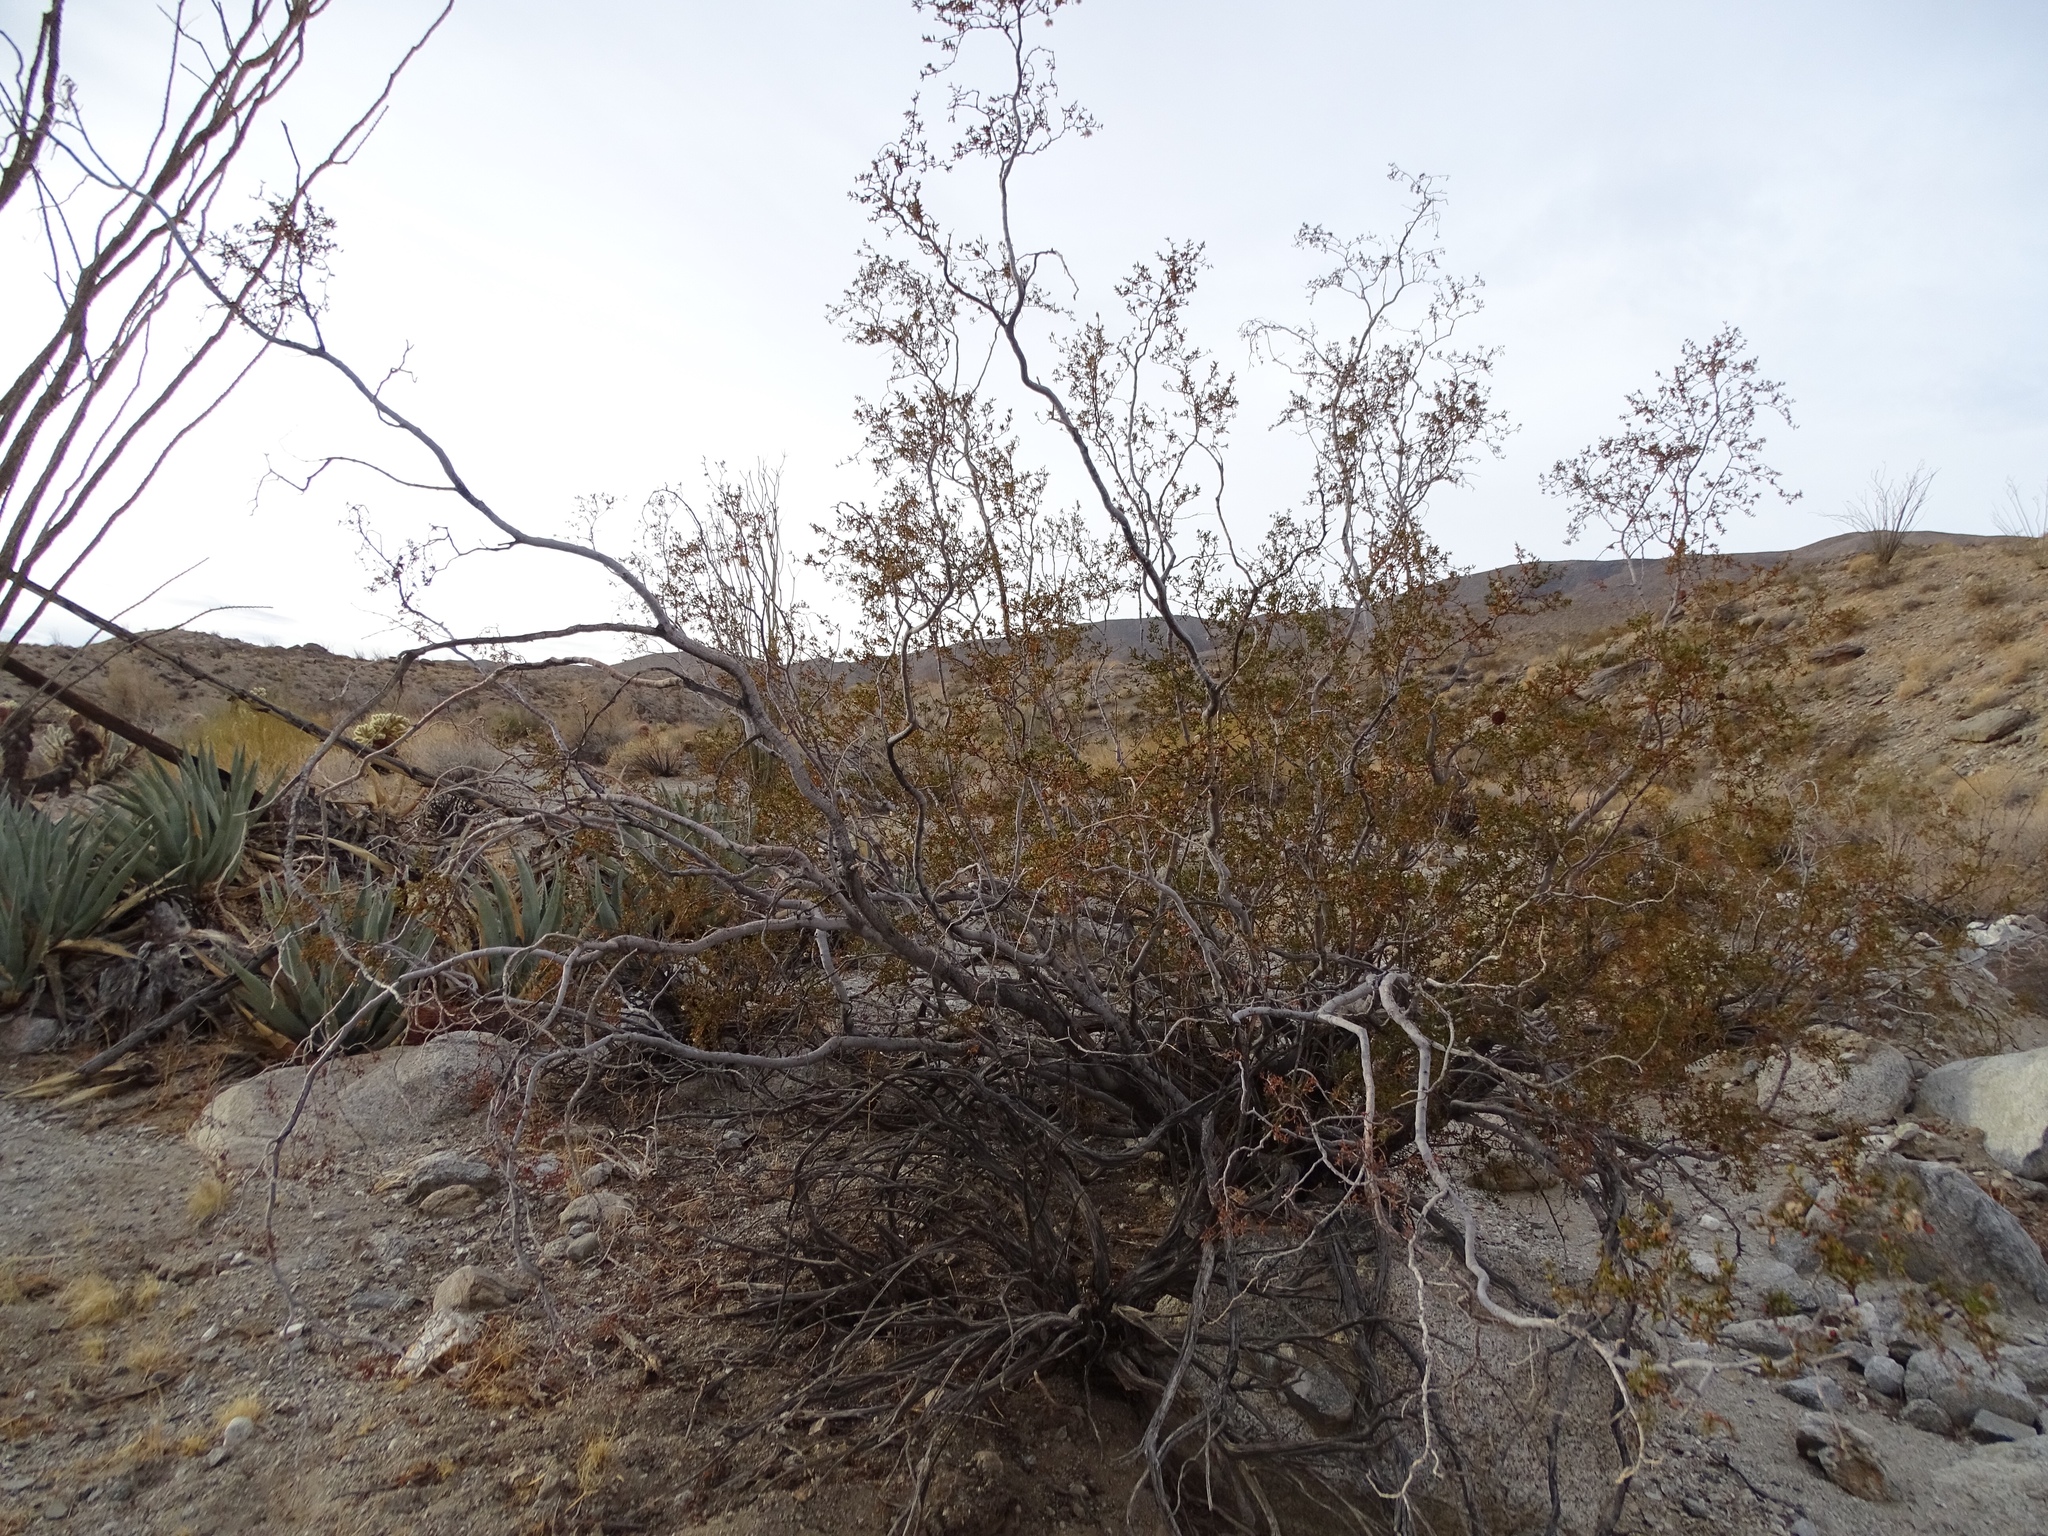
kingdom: Plantae
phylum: Tracheophyta
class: Magnoliopsida
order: Zygophyllales
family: Zygophyllaceae
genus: Larrea
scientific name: Larrea tridentata
